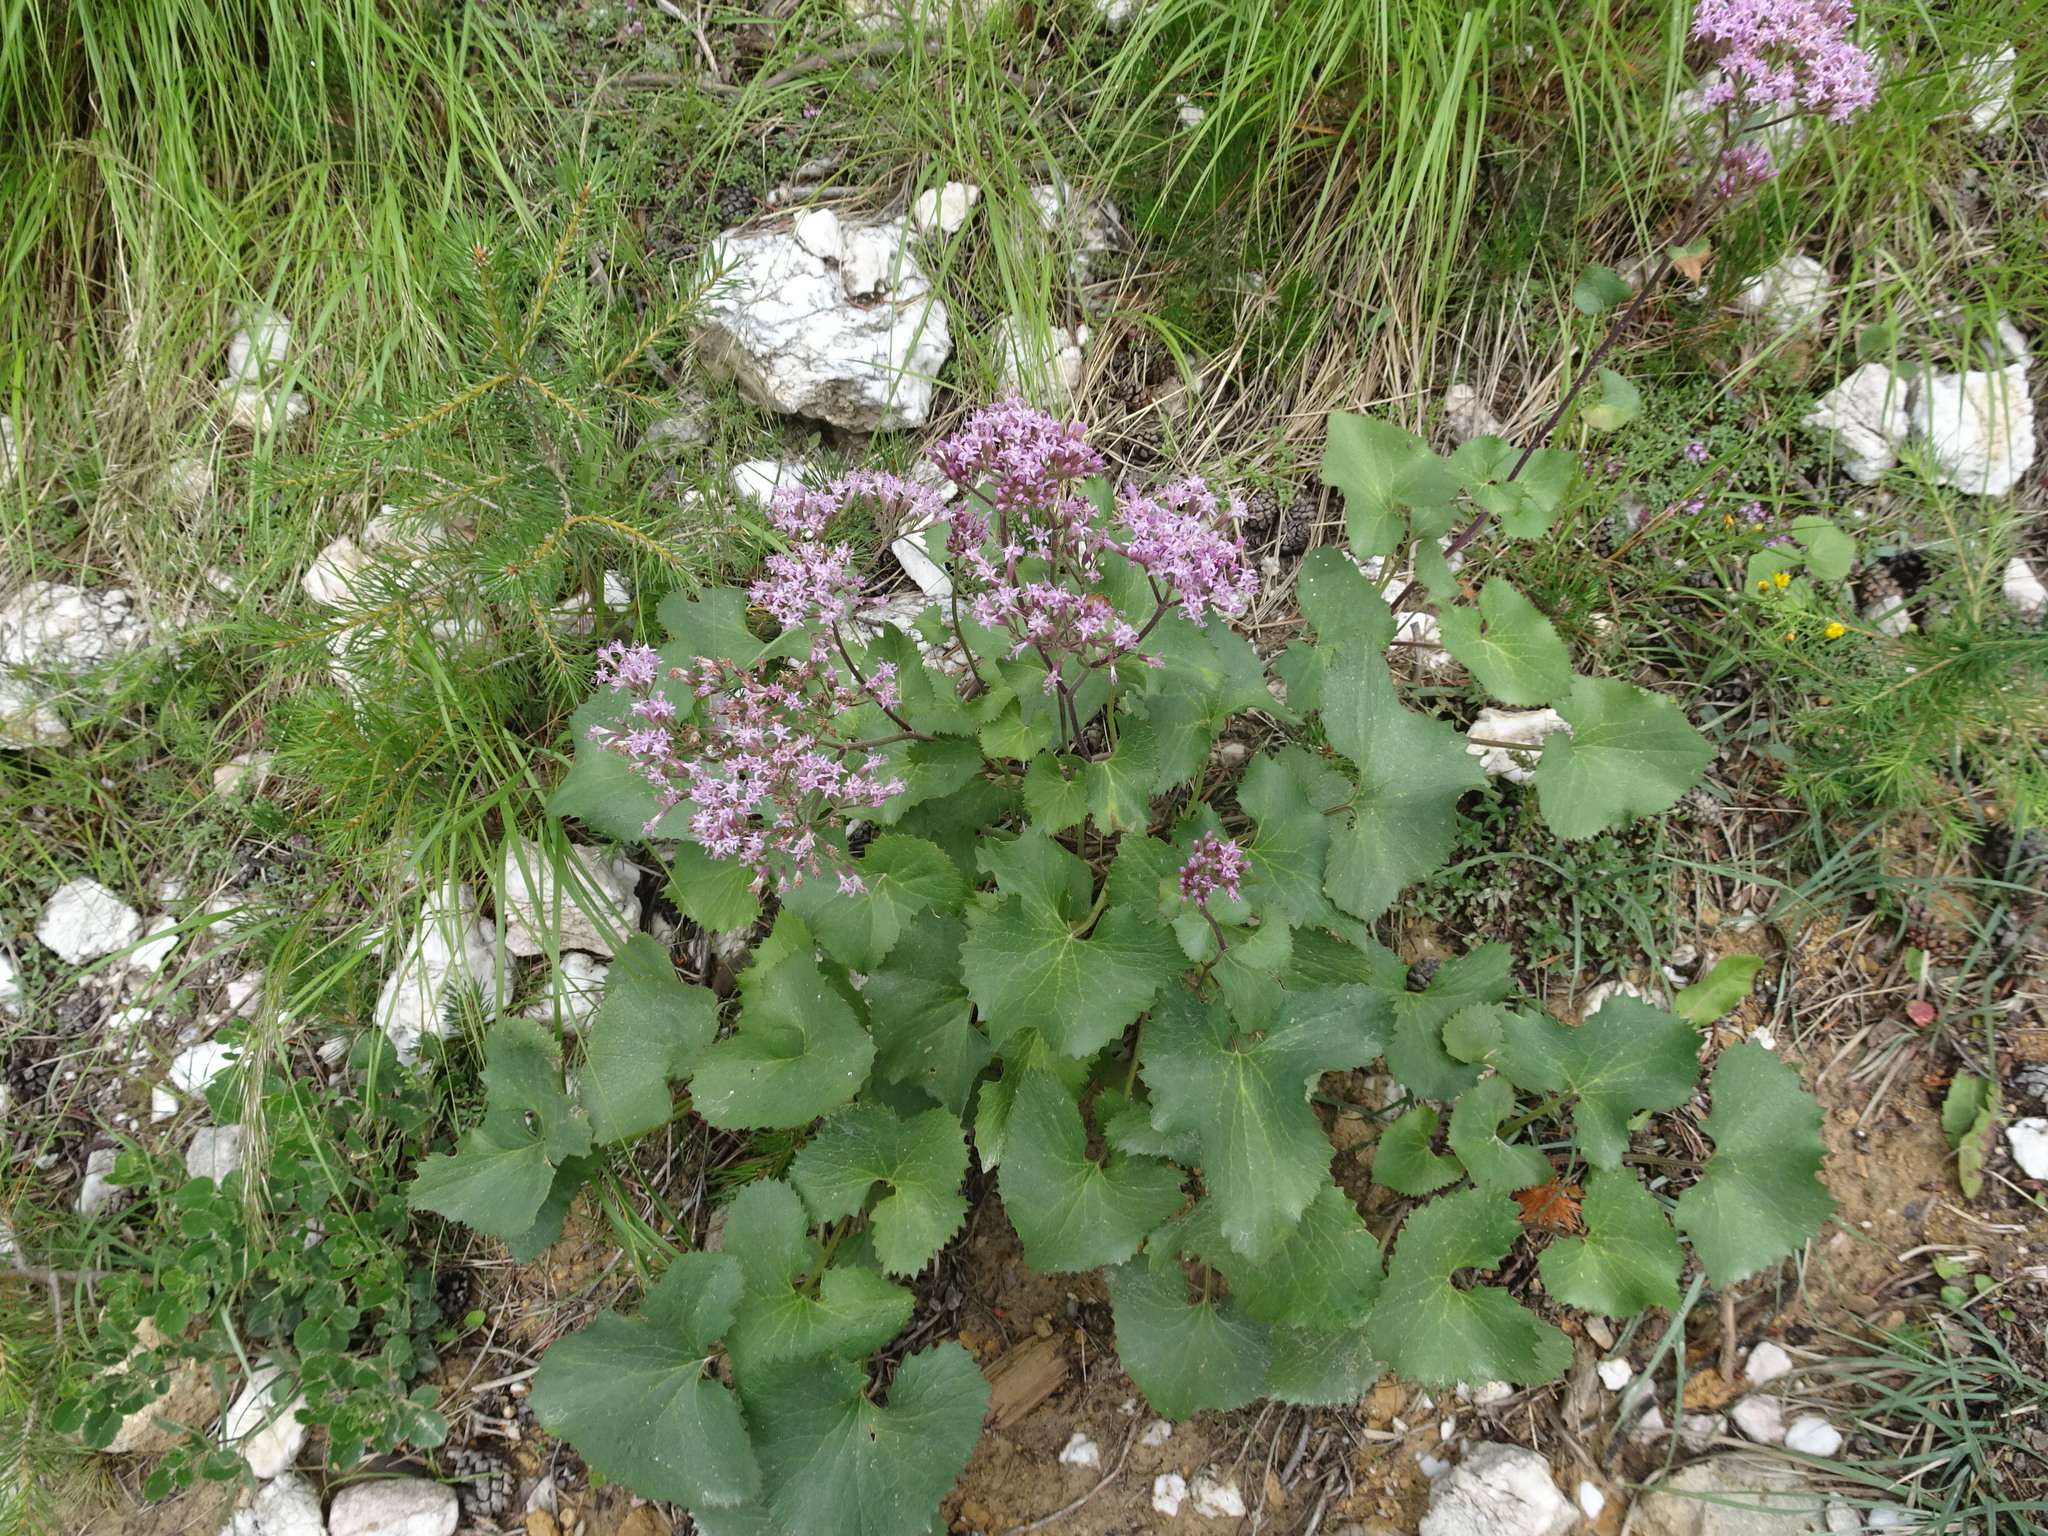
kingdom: Plantae
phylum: Tracheophyta
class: Magnoliopsida
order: Asterales
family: Asteraceae
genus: Adenostyles
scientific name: Adenostyles alpina
